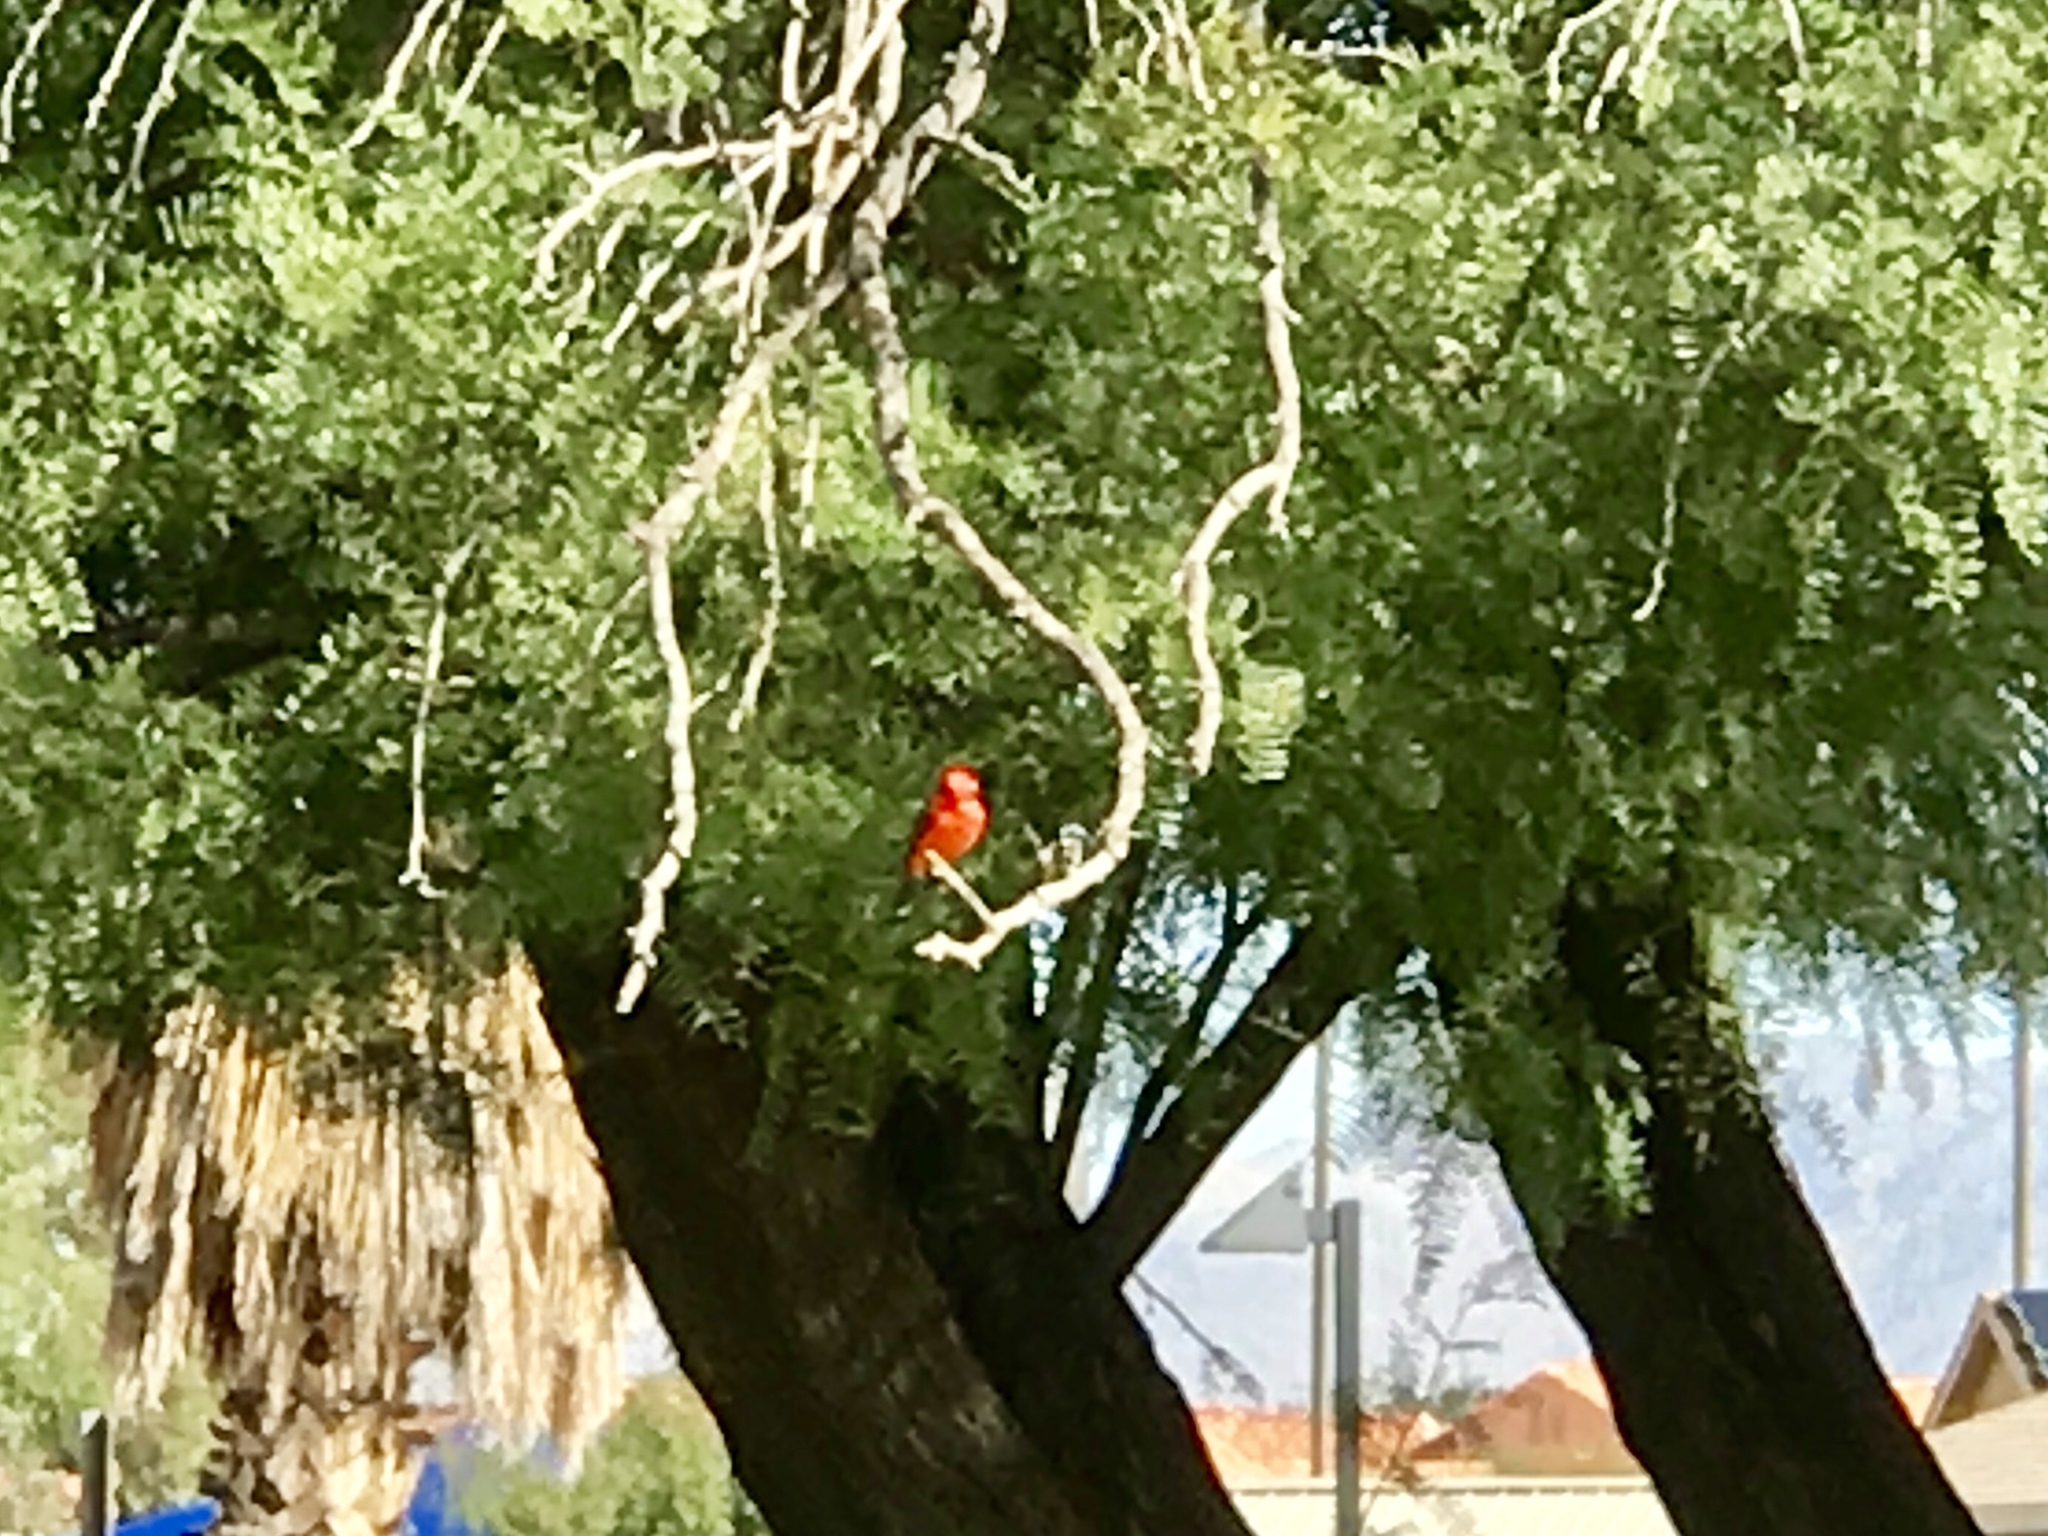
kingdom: Animalia
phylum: Chordata
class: Aves
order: Passeriformes
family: Tyrannidae
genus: Pyrocephalus
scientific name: Pyrocephalus rubinus
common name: Vermilion flycatcher
